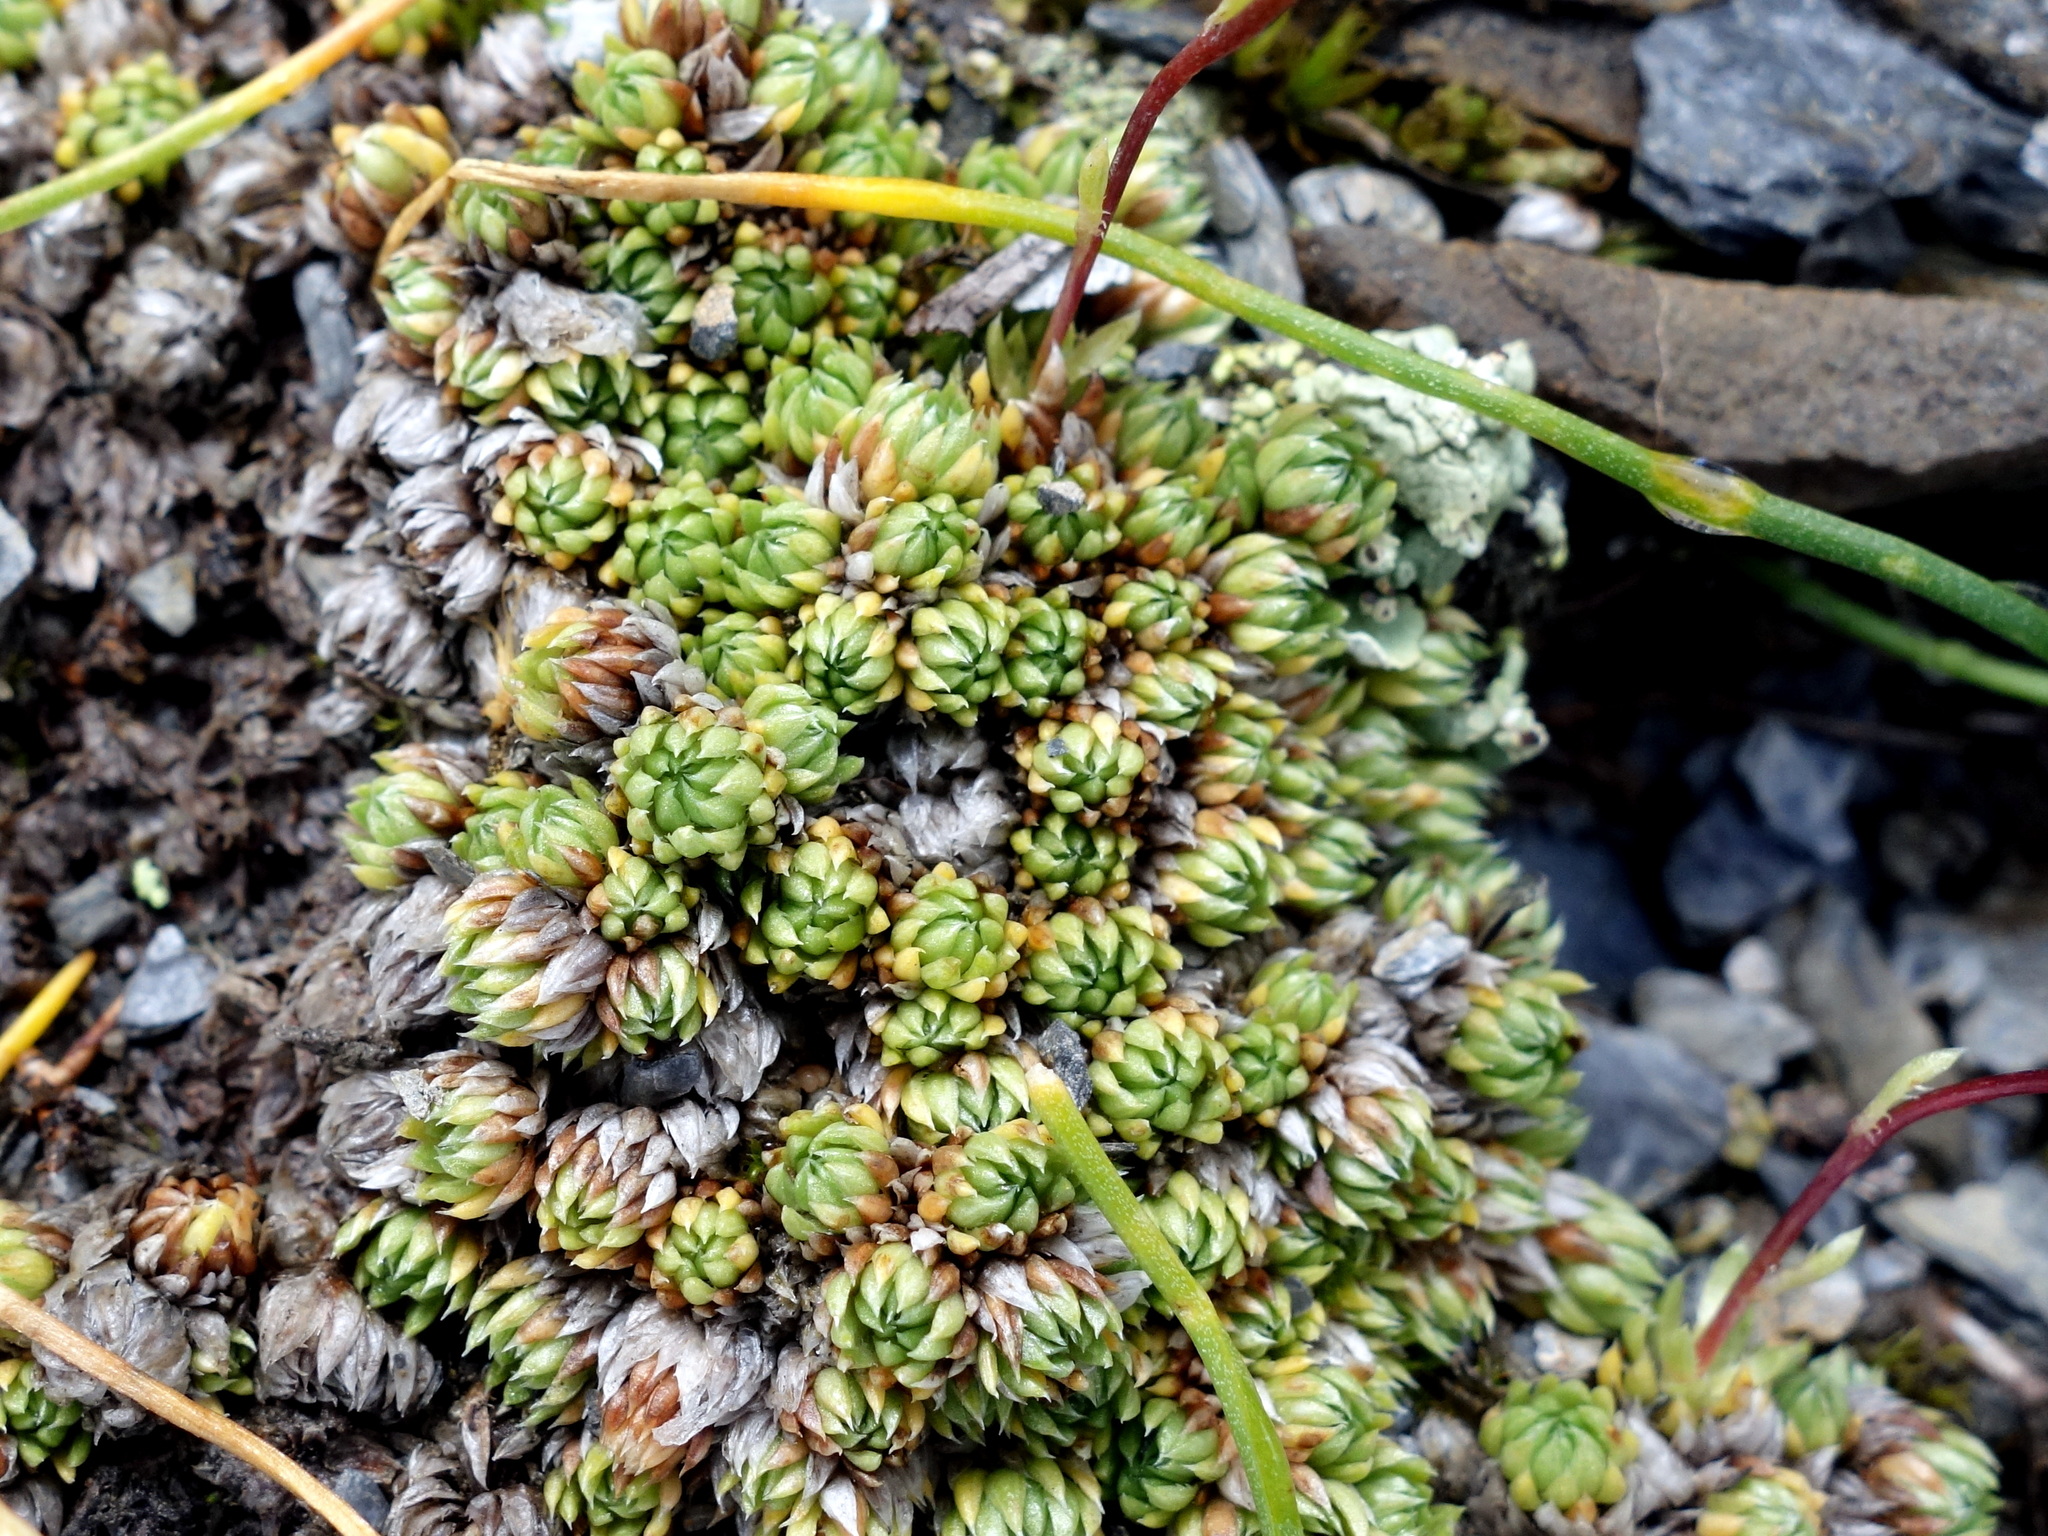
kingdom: Plantae
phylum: Tracheophyta
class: Magnoliopsida
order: Saxifragales
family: Saxifragaceae
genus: Saxifraga
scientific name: Saxifraga bryoides
